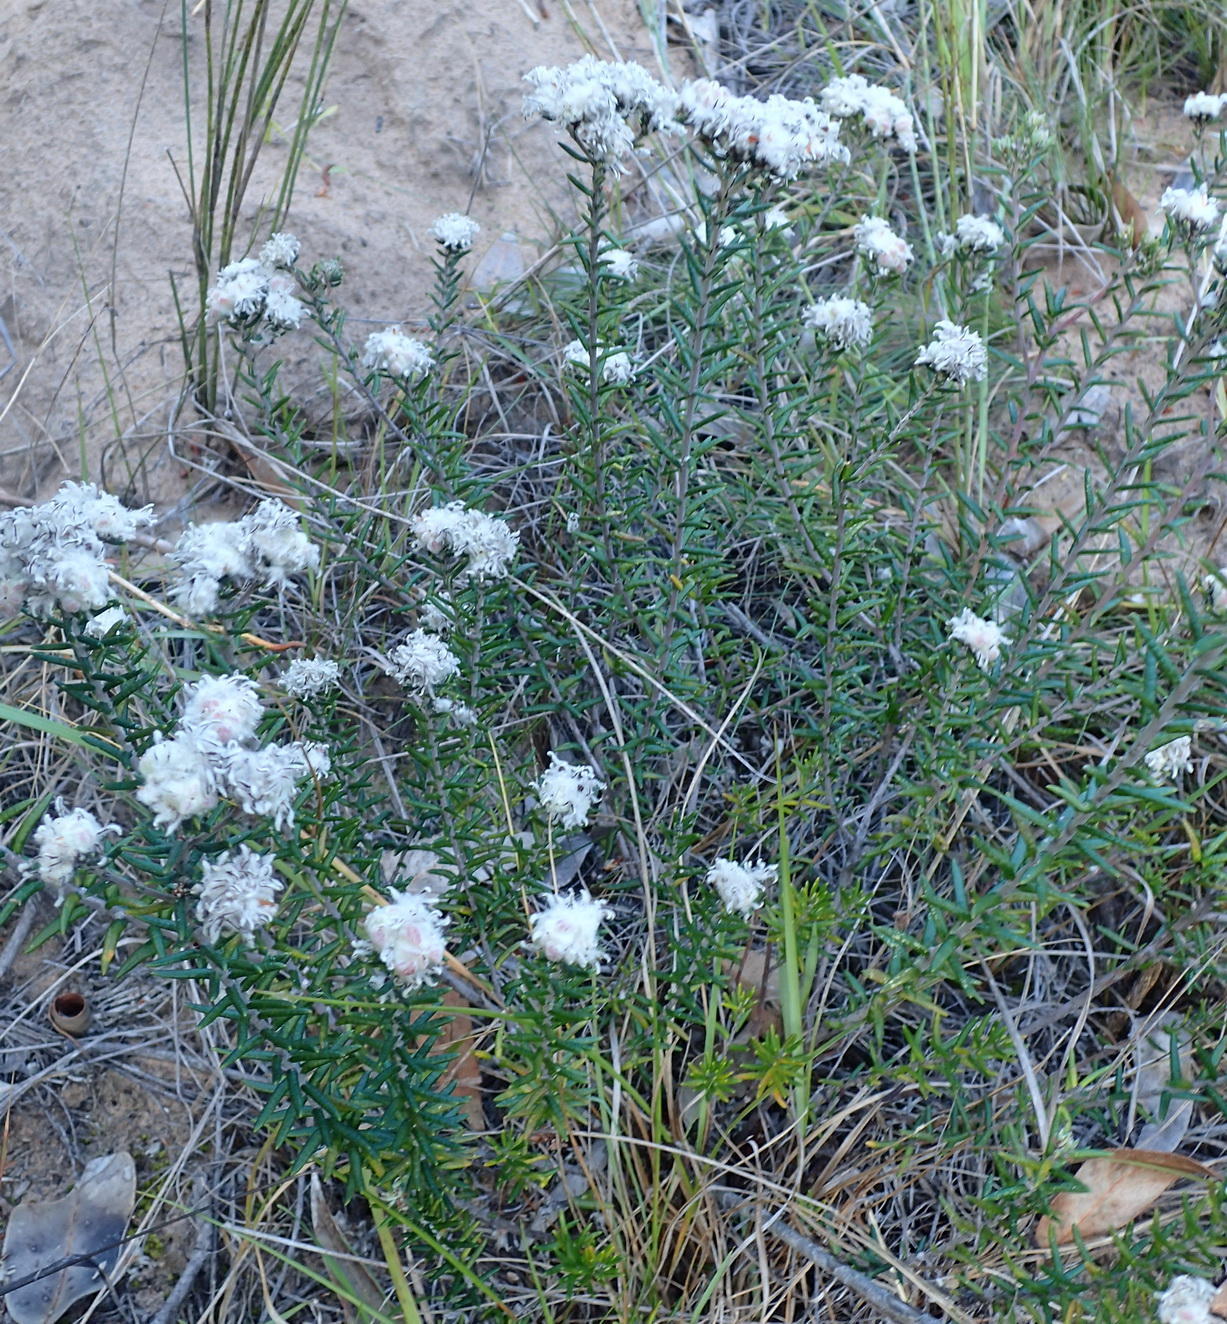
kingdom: Plantae
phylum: Tracheophyta
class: Magnoliopsida
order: Rosales
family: Rhamnaceae
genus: Trichocephalus
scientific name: Trichocephalus stipularis
